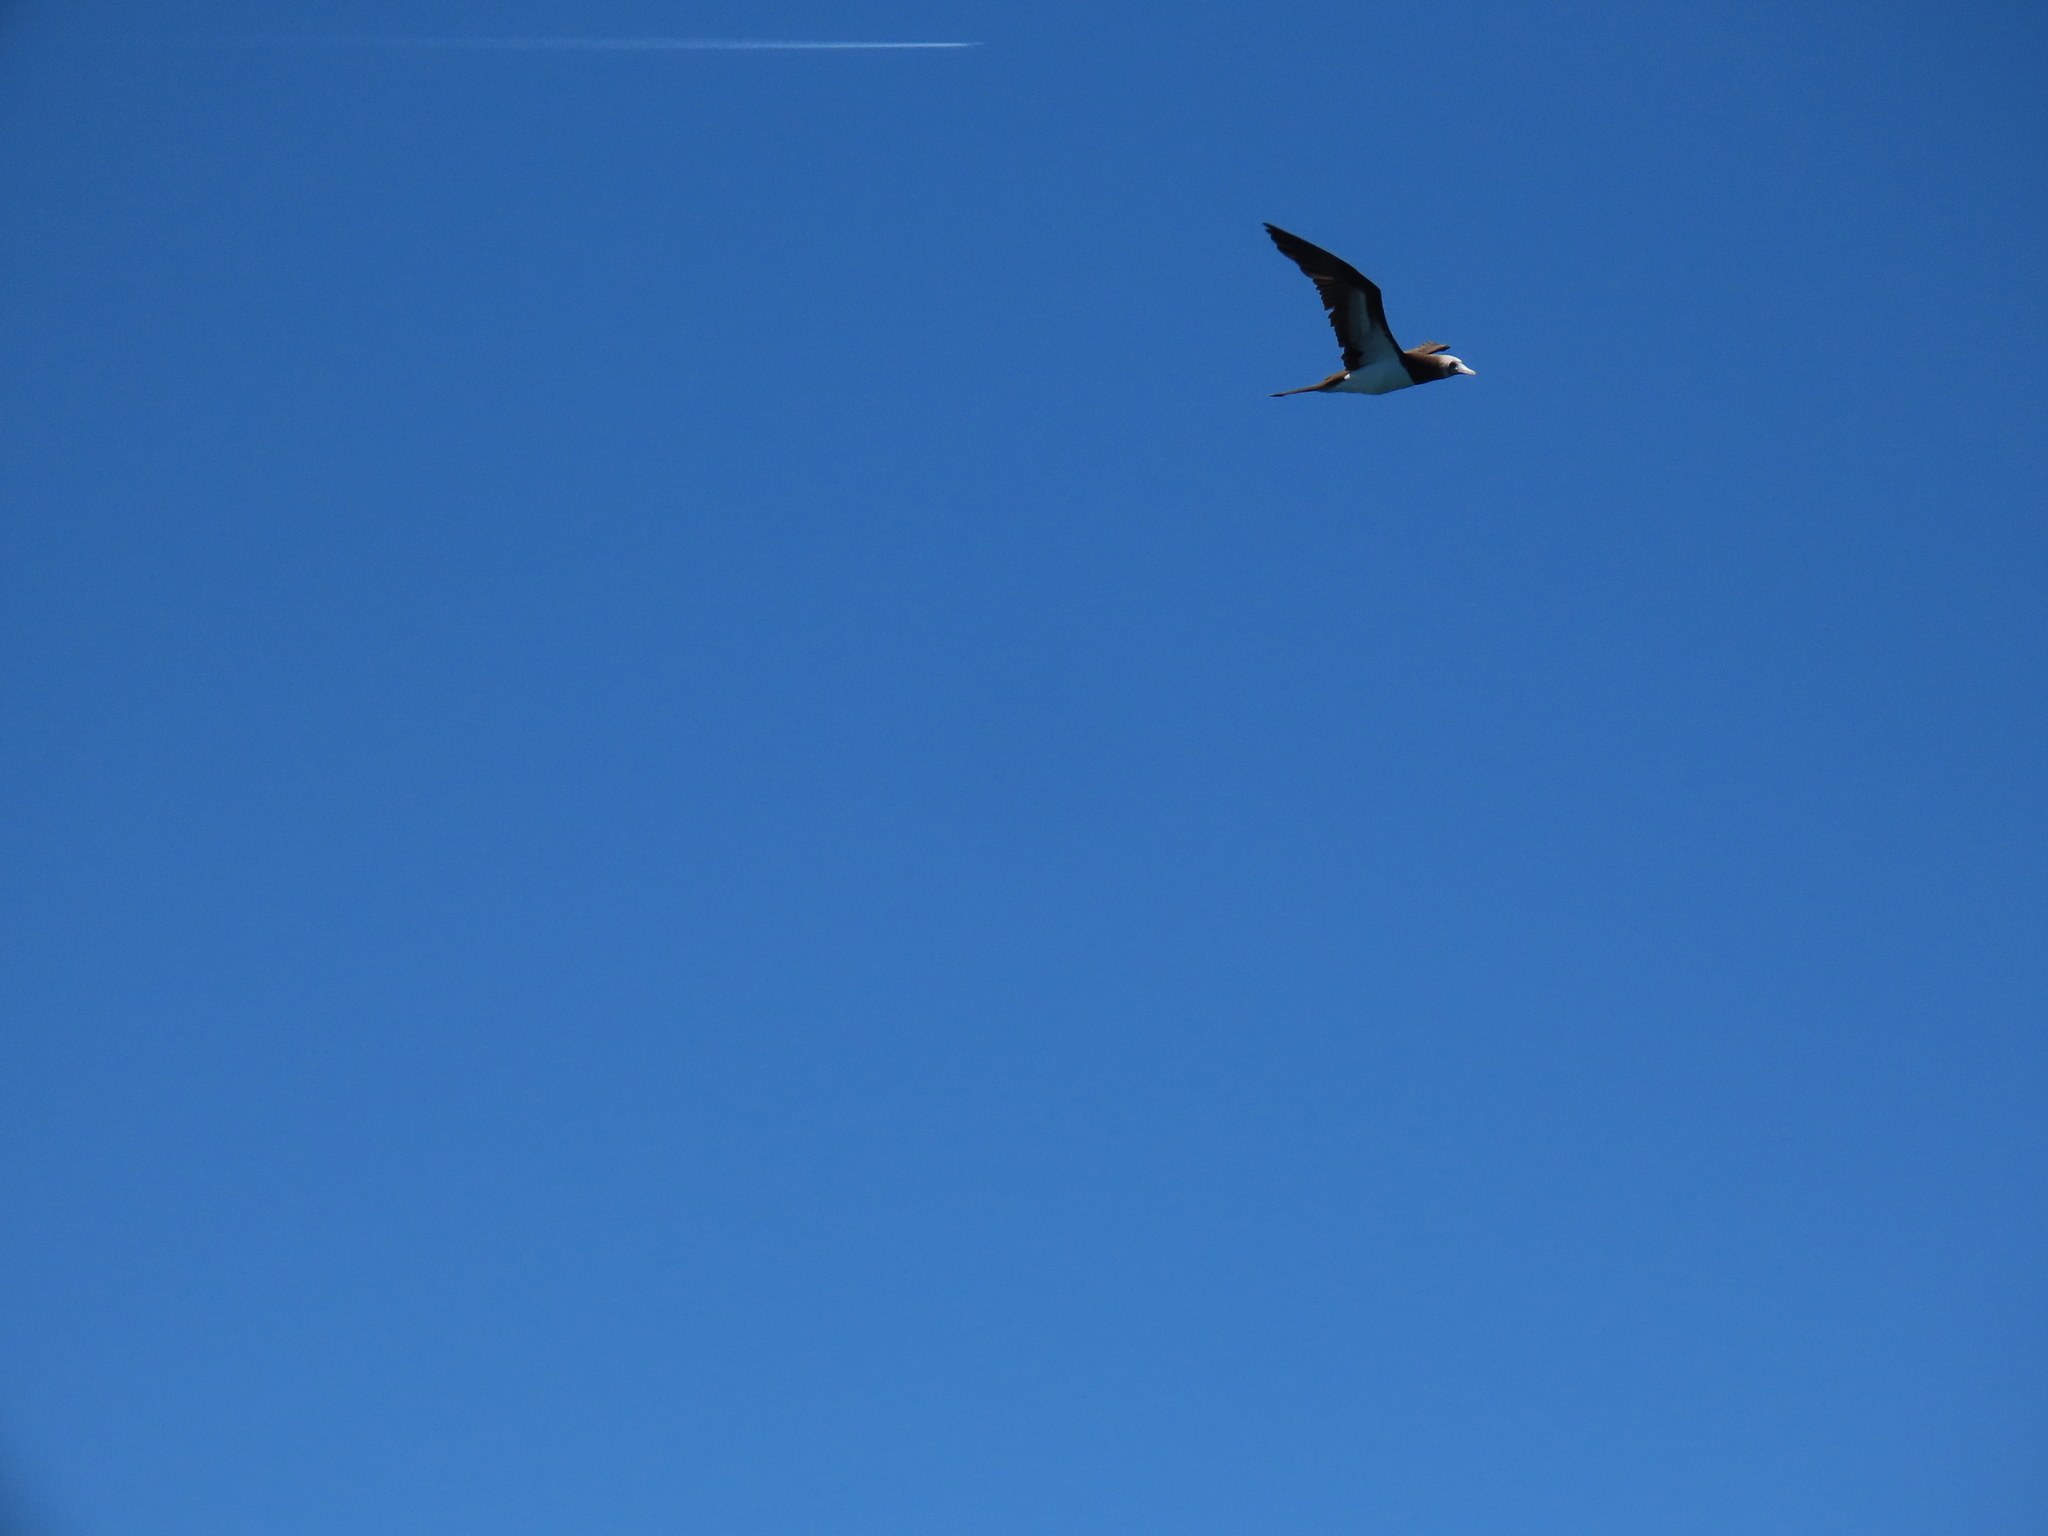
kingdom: Animalia
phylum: Chordata
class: Aves
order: Suliformes
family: Sulidae
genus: Sula
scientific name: Sula leucogaster
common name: Brown booby
